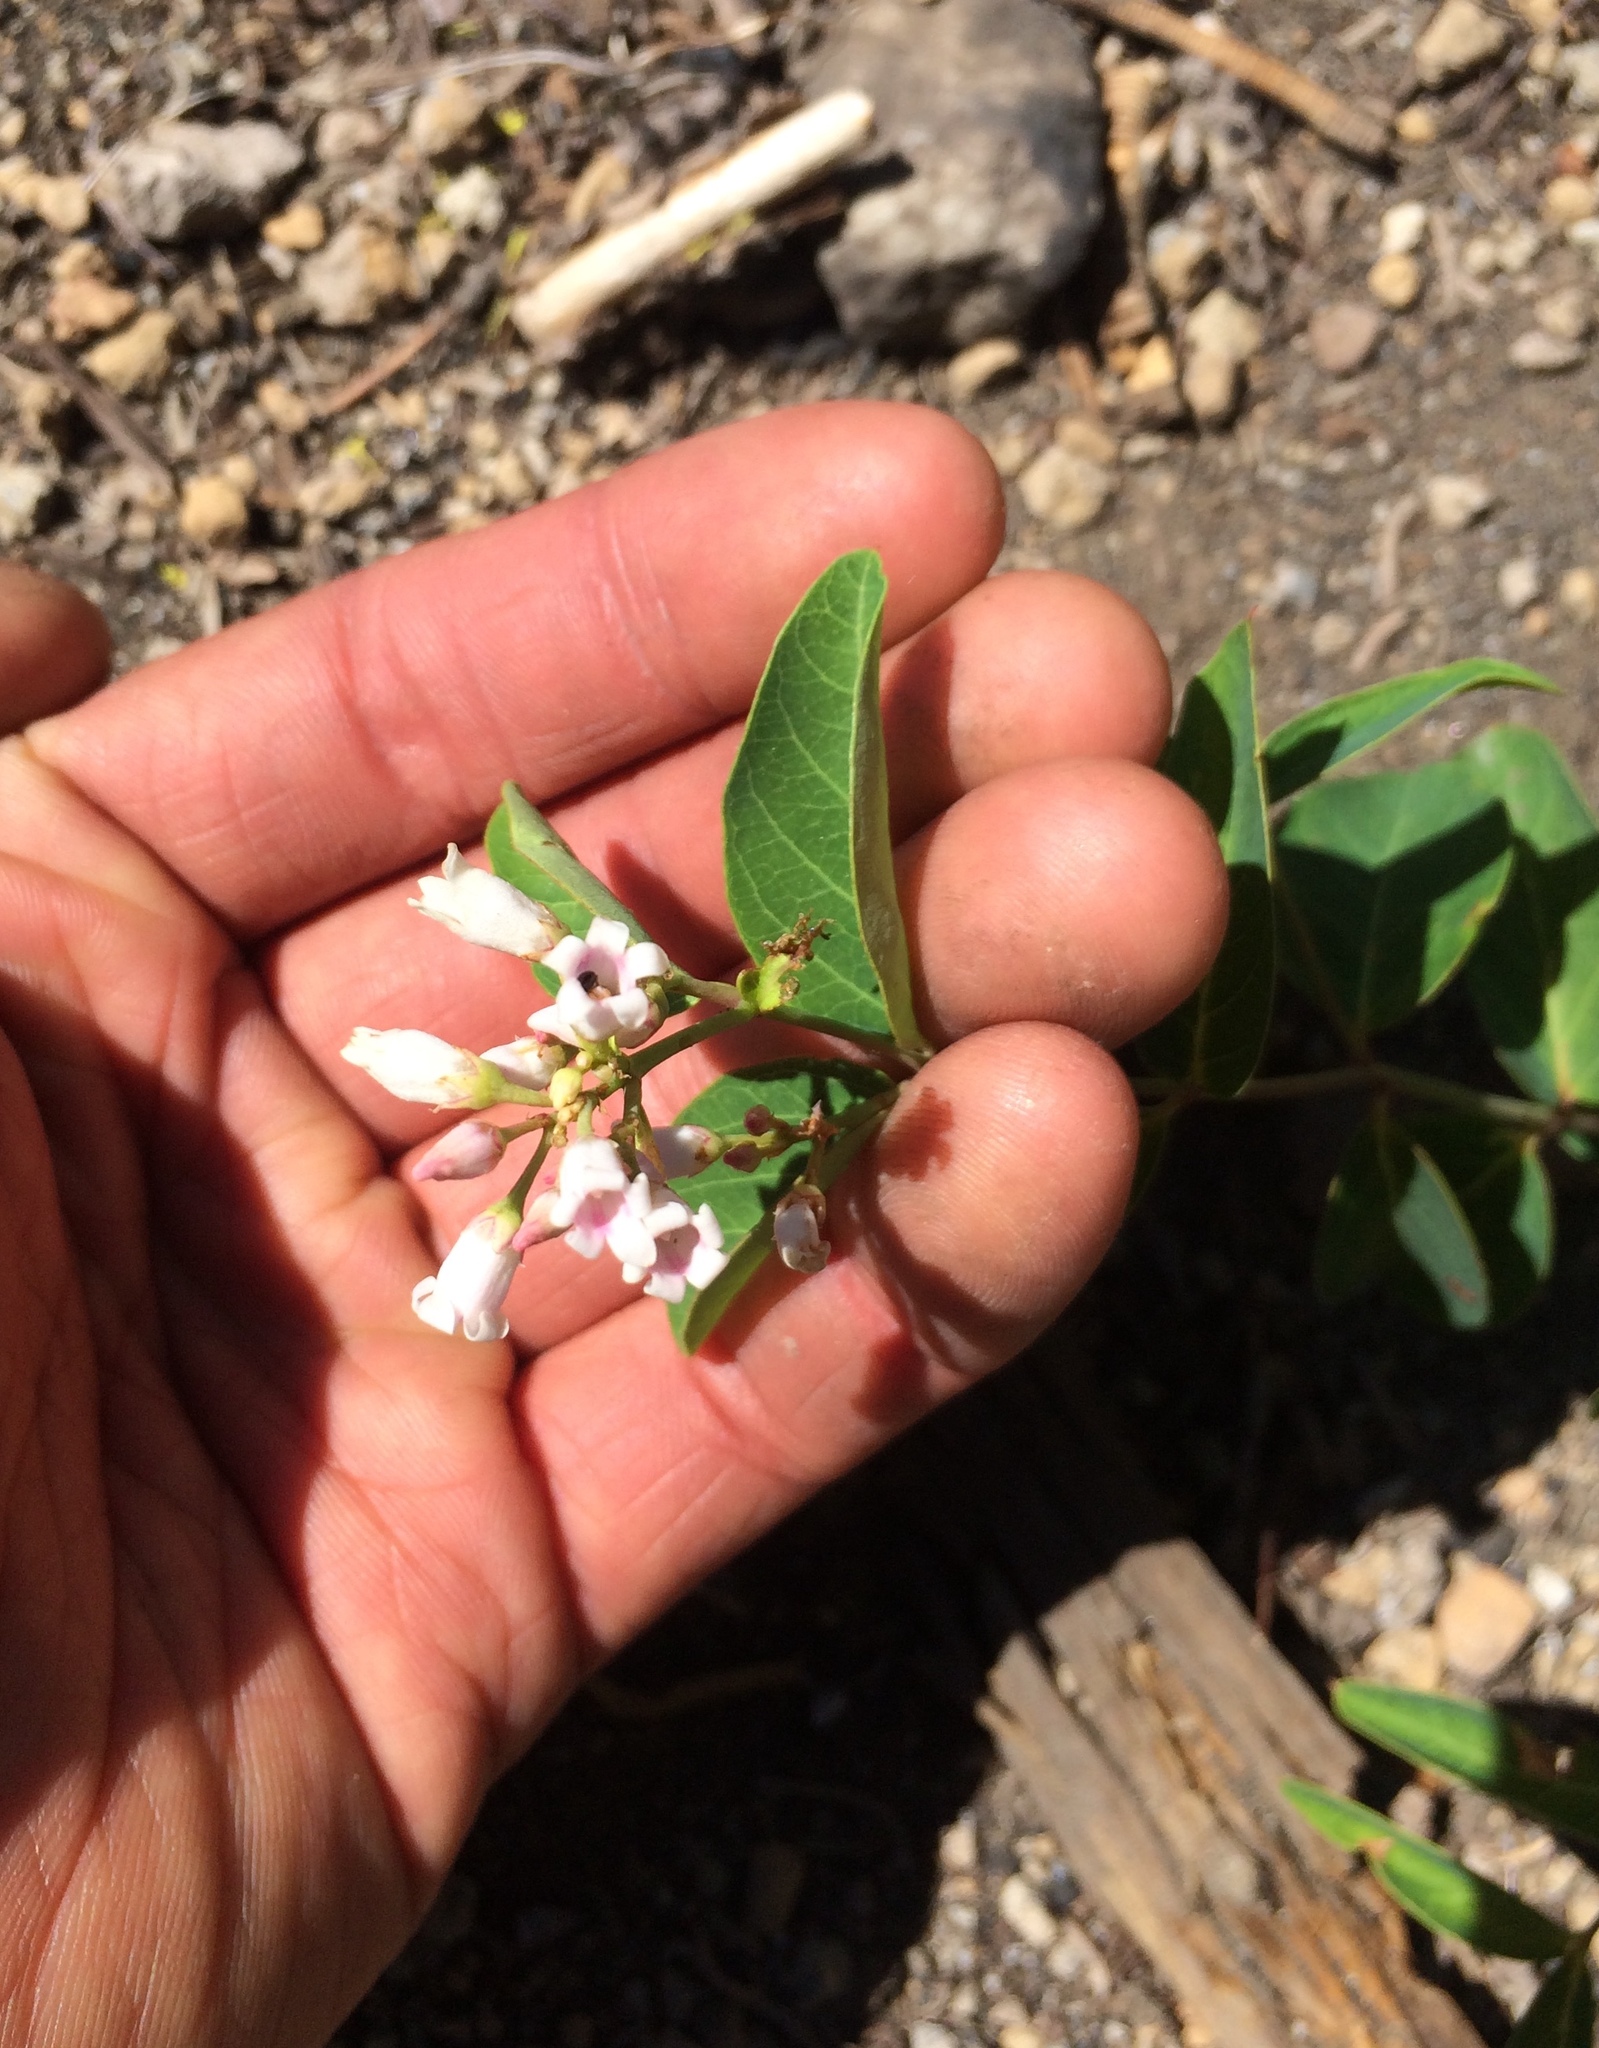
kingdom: Plantae
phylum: Tracheophyta
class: Magnoliopsida
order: Gentianales
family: Apocynaceae
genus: Apocynum
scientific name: Apocynum androsaemifolium
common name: Spreading dogbane
